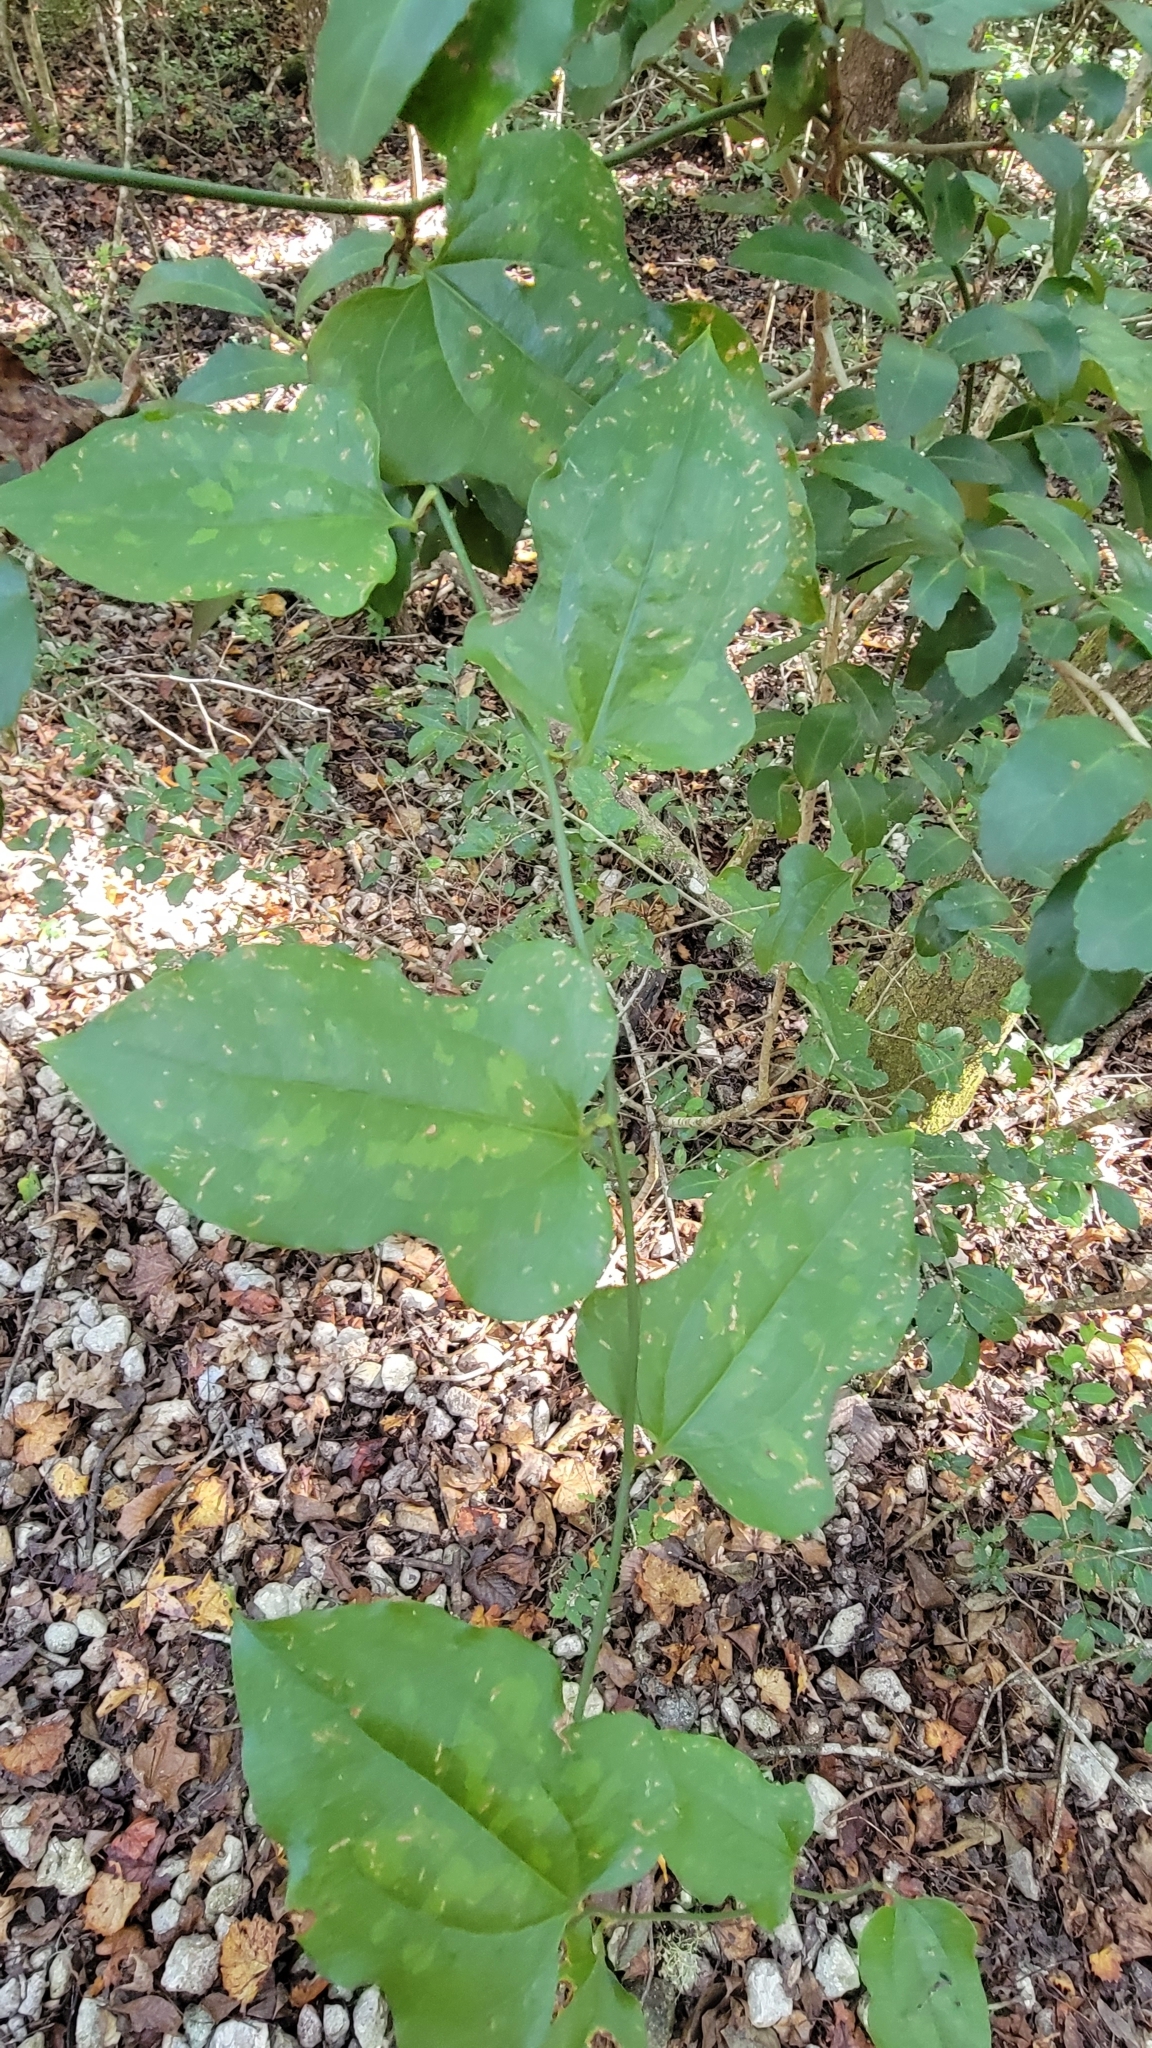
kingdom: Plantae
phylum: Tracheophyta
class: Liliopsida
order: Liliales
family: Smilacaceae
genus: Smilax
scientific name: Smilax tamnoides
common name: Hellfetter
